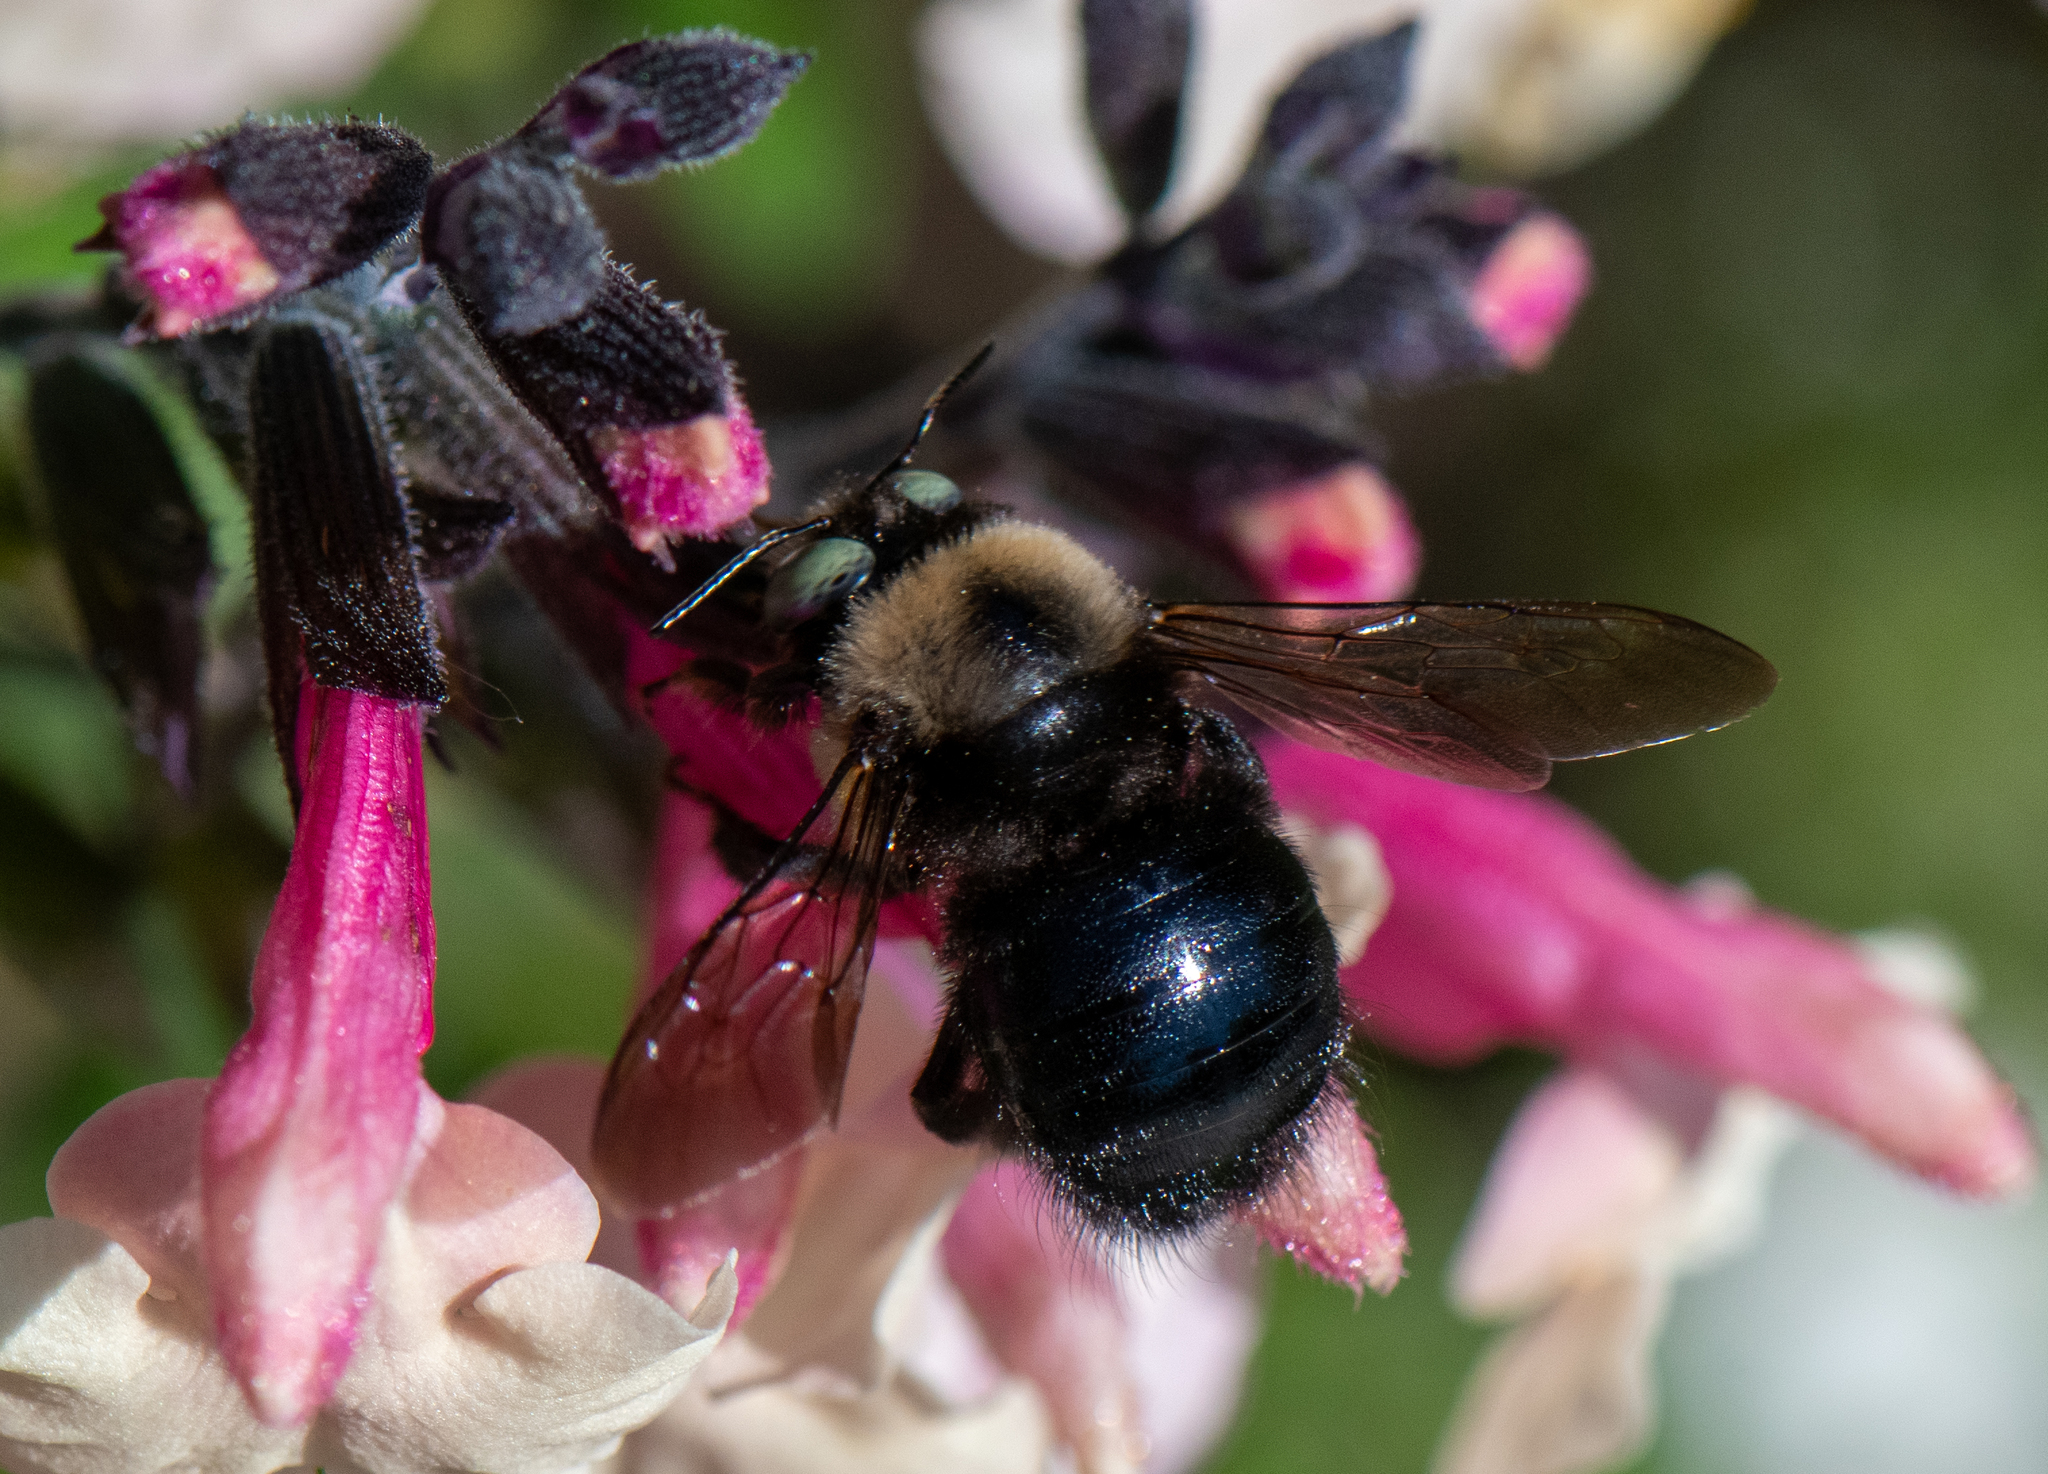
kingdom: Animalia
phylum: Arthropoda
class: Insecta
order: Hymenoptera
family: Apidae
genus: Xylocopa
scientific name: Xylocopa tabaniformis
